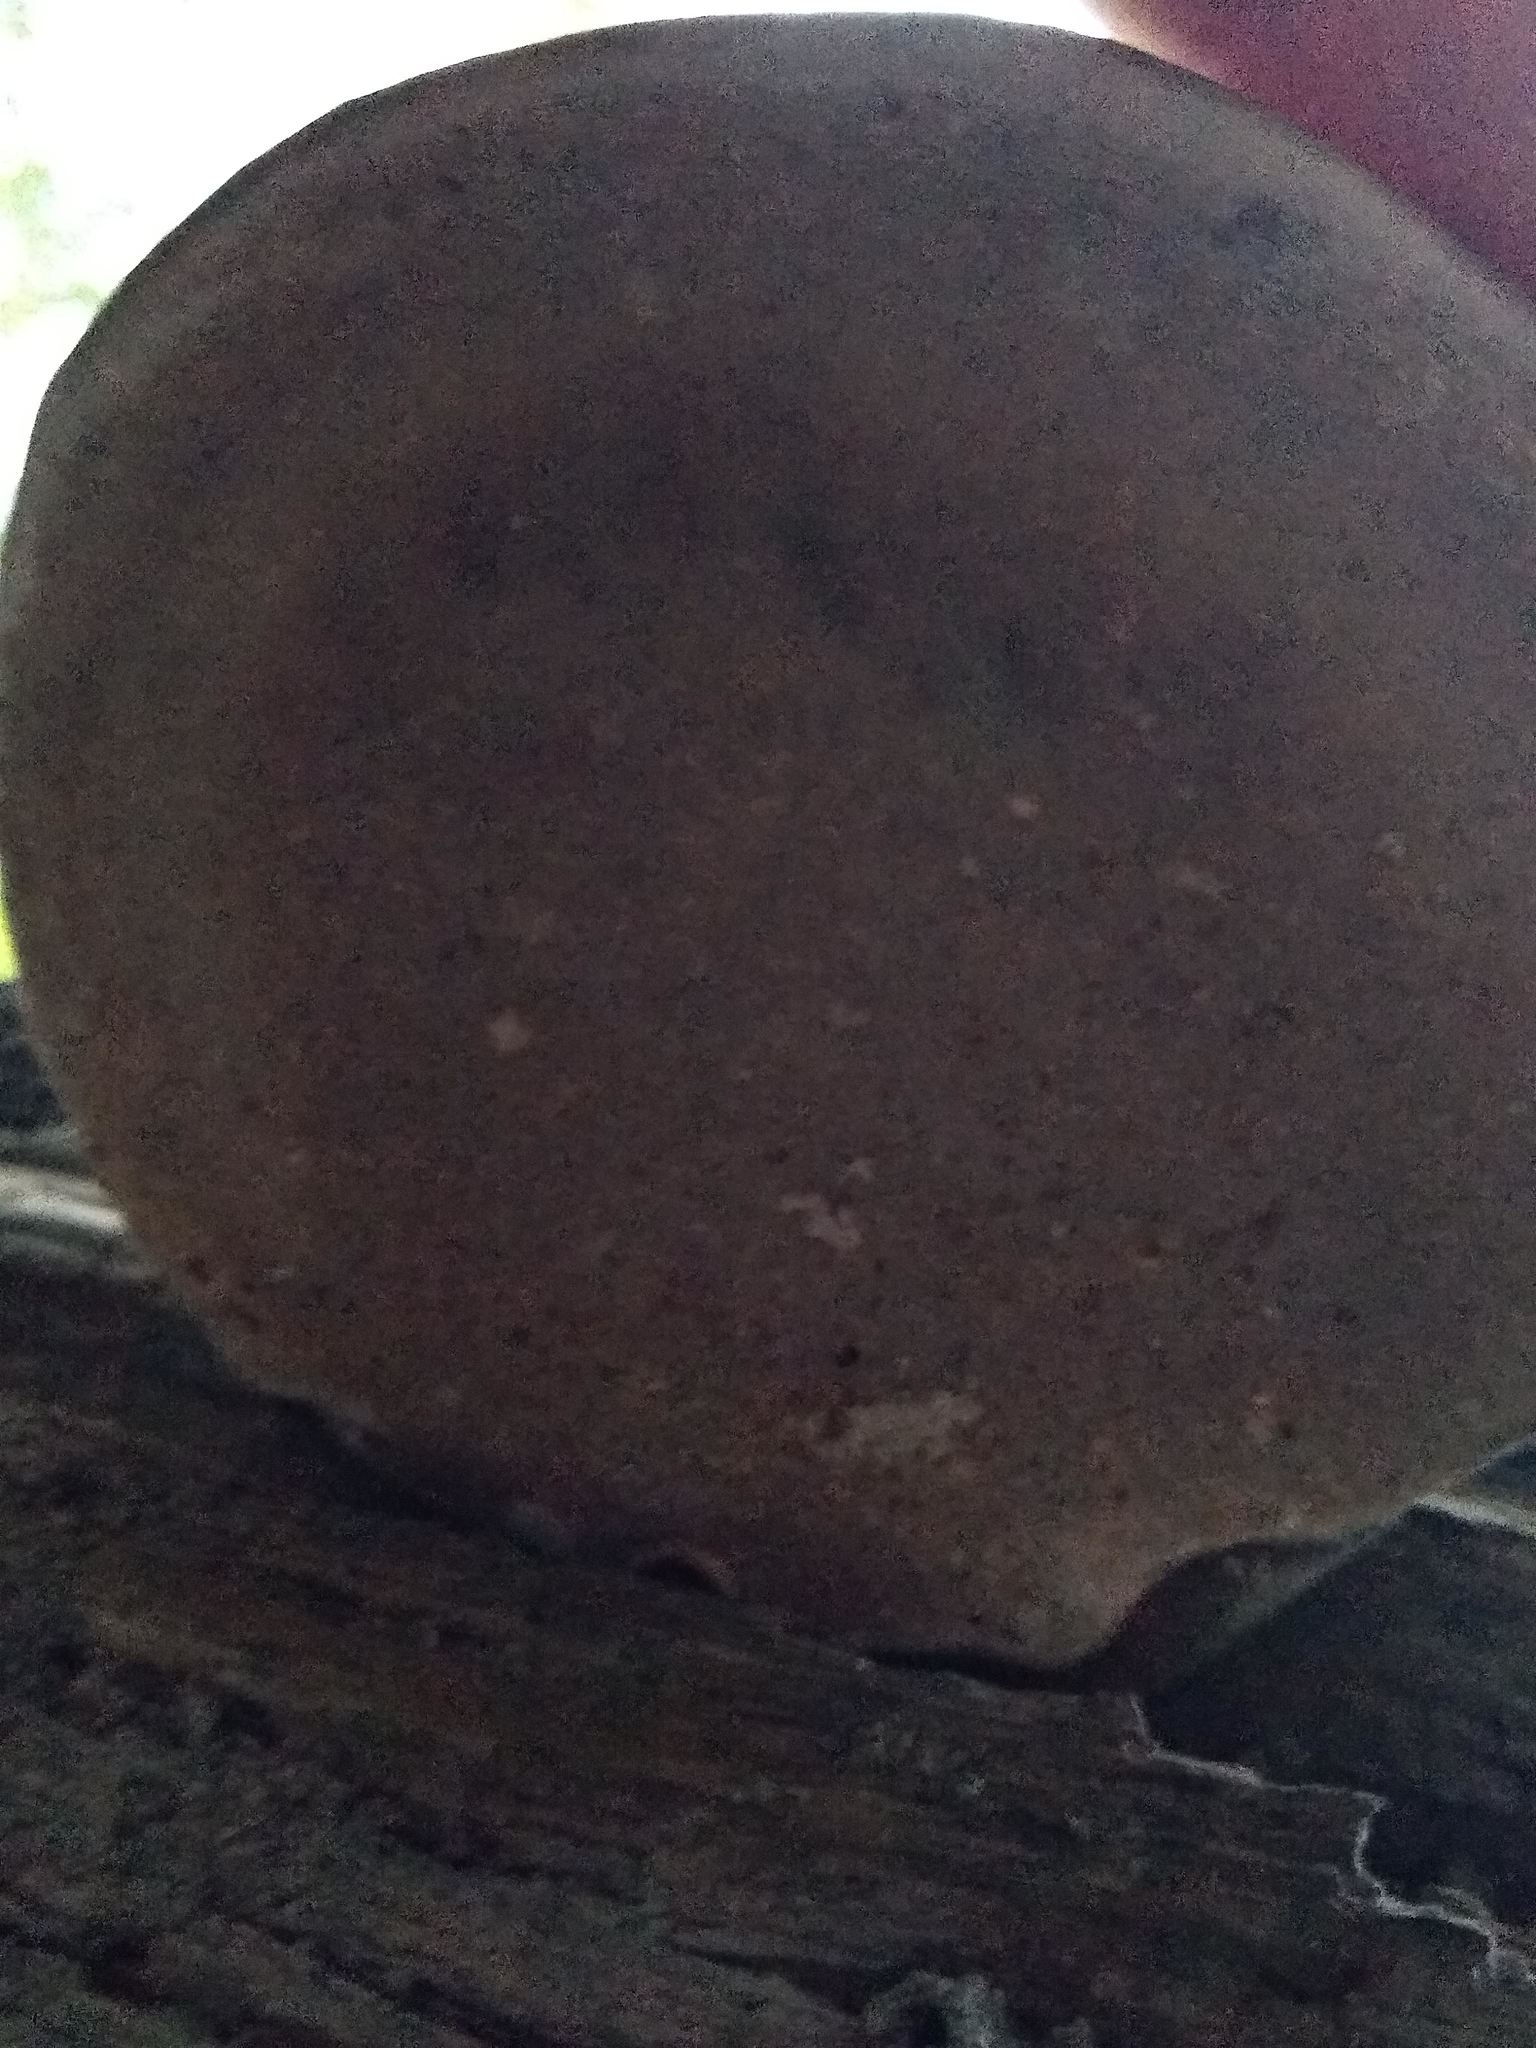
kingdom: Fungi
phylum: Basidiomycota
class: Agaricomycetes
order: Polyporales
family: Polyporaceae
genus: Ganoderma
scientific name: Ganoderma applanatum
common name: Artist's bracket
